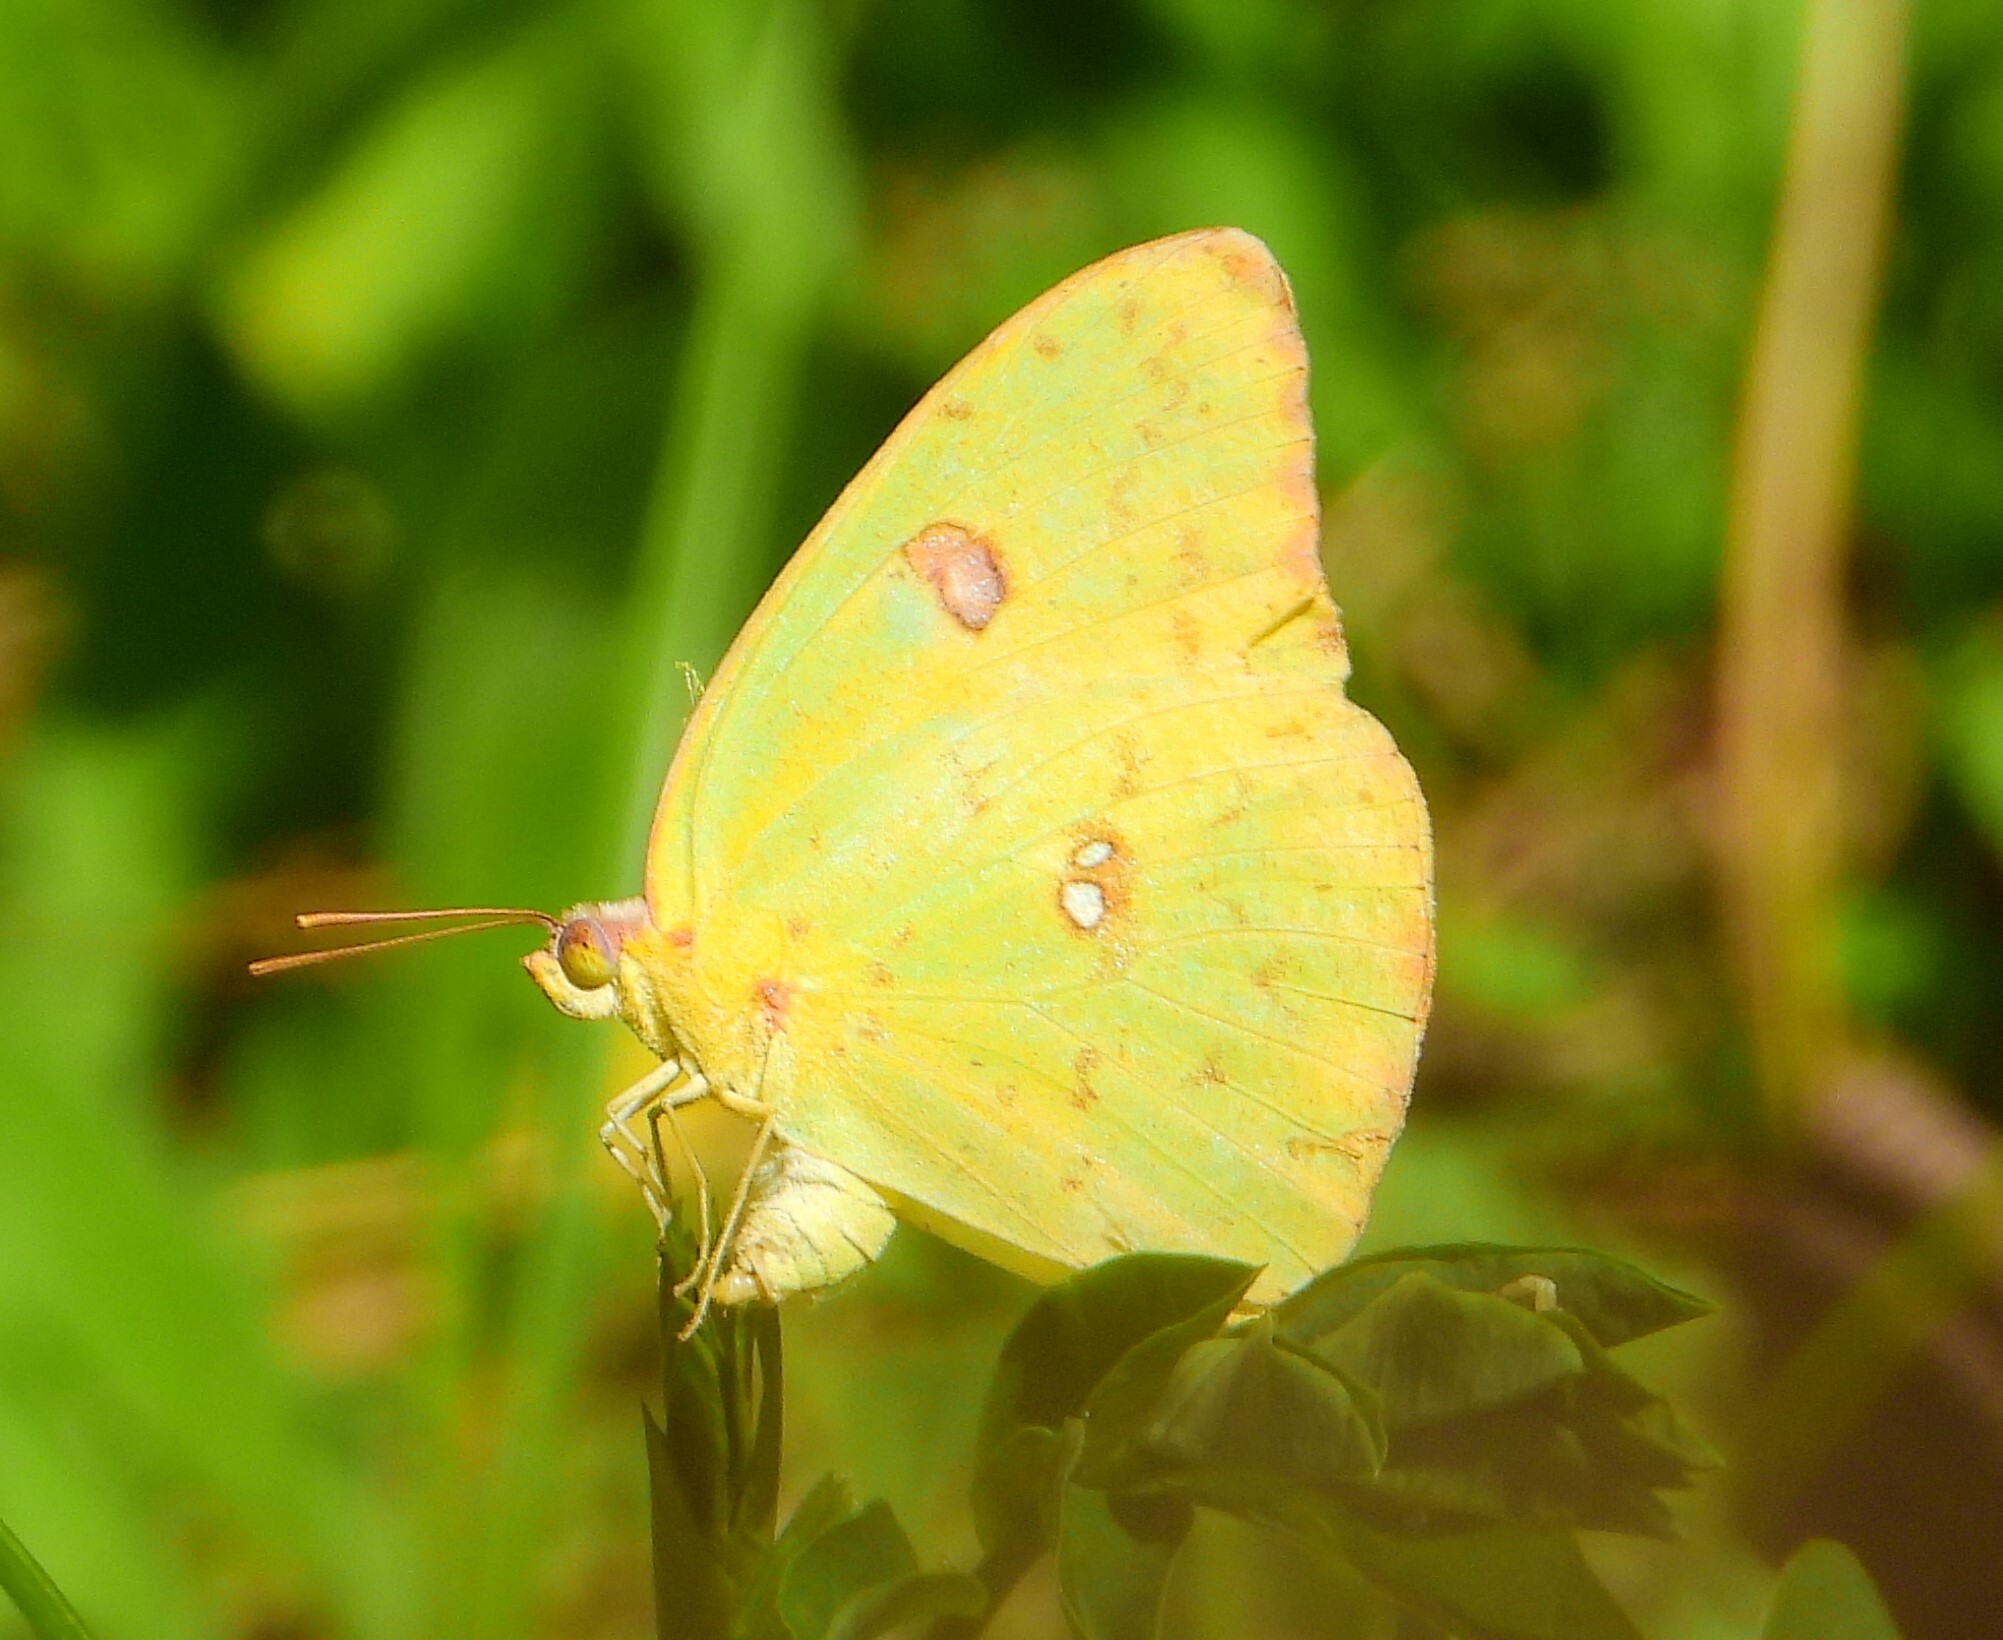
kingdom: Animalia
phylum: Arthropoda
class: Insecta
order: Lepidoptera
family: Pieridae
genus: Phoebis
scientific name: Phoebis sennae
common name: Cloudless sulphur
